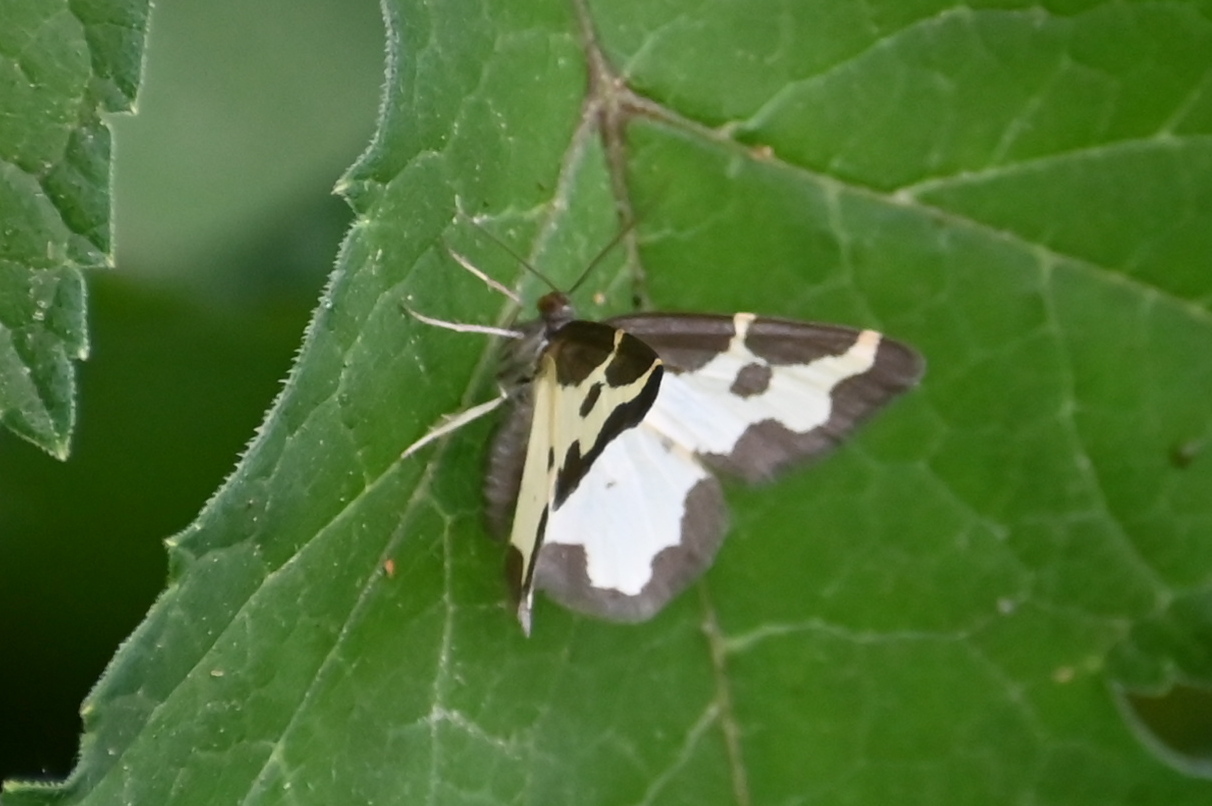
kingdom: Animalia
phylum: Arthropoda
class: Insecta
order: Lepidoptera
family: Geometridae
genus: Lomaspilis
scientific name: Lomaspilis marginata
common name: Clouded border
